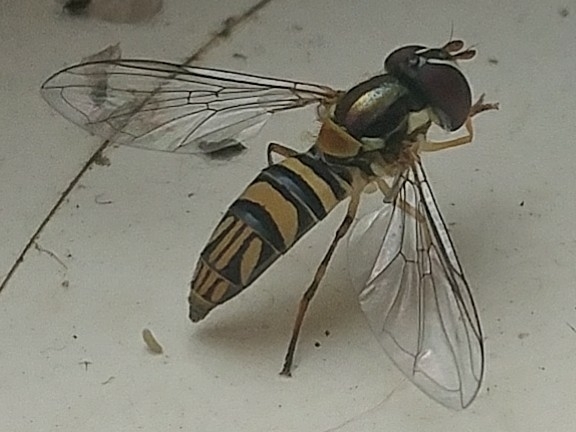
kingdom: Animalia
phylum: Arthropoda
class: Insecta
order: Diptera
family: Syrphidae
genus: Allograpta
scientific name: Allograpta obliqua
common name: Common oblique syrphid
